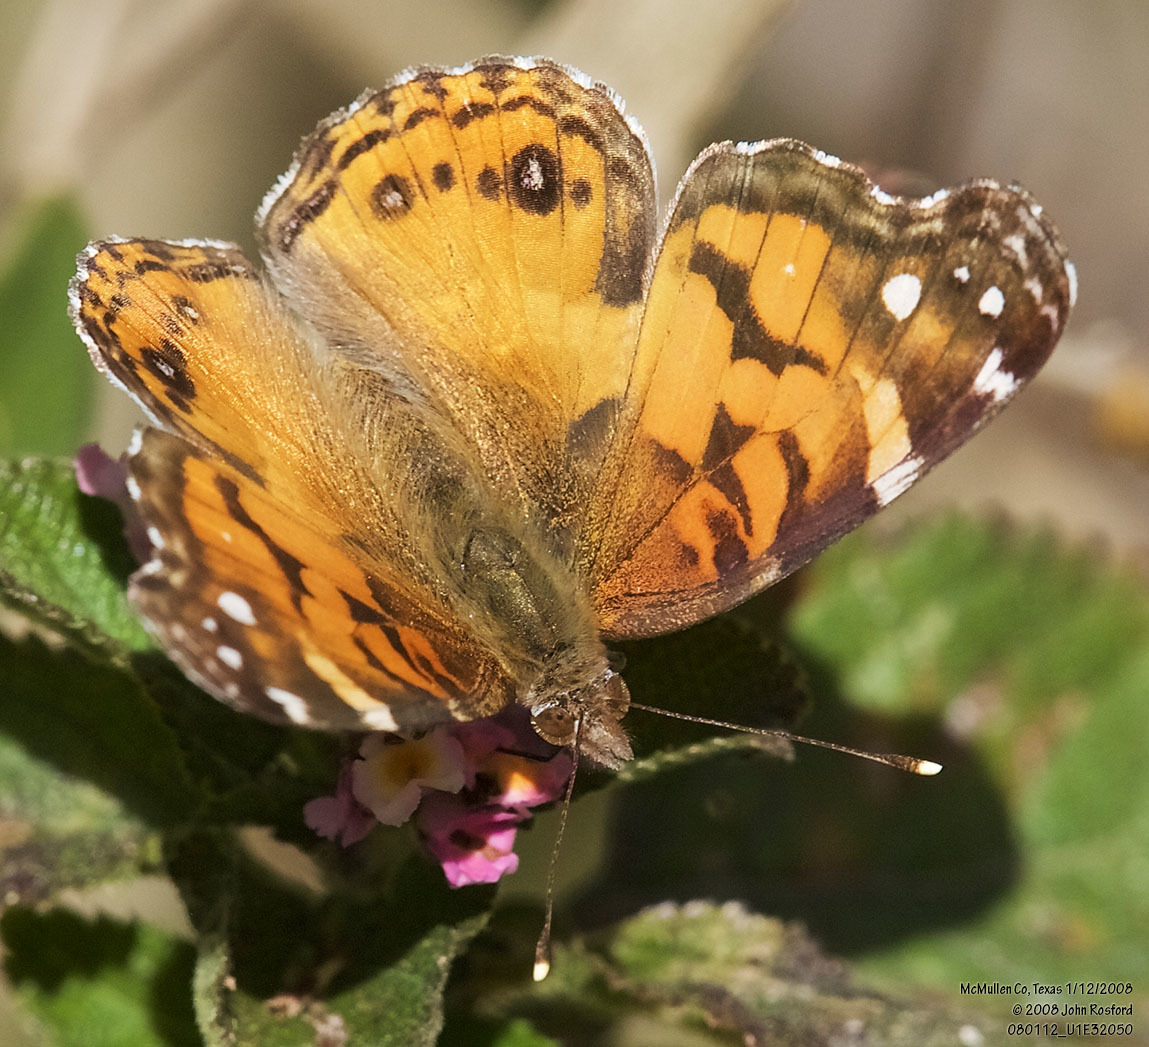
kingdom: Animalia
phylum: Arthropoda
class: Insecta
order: Lepidoptera
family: Nymphalidae
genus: Vanessa
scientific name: Vanessa virginiensis
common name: American lady
